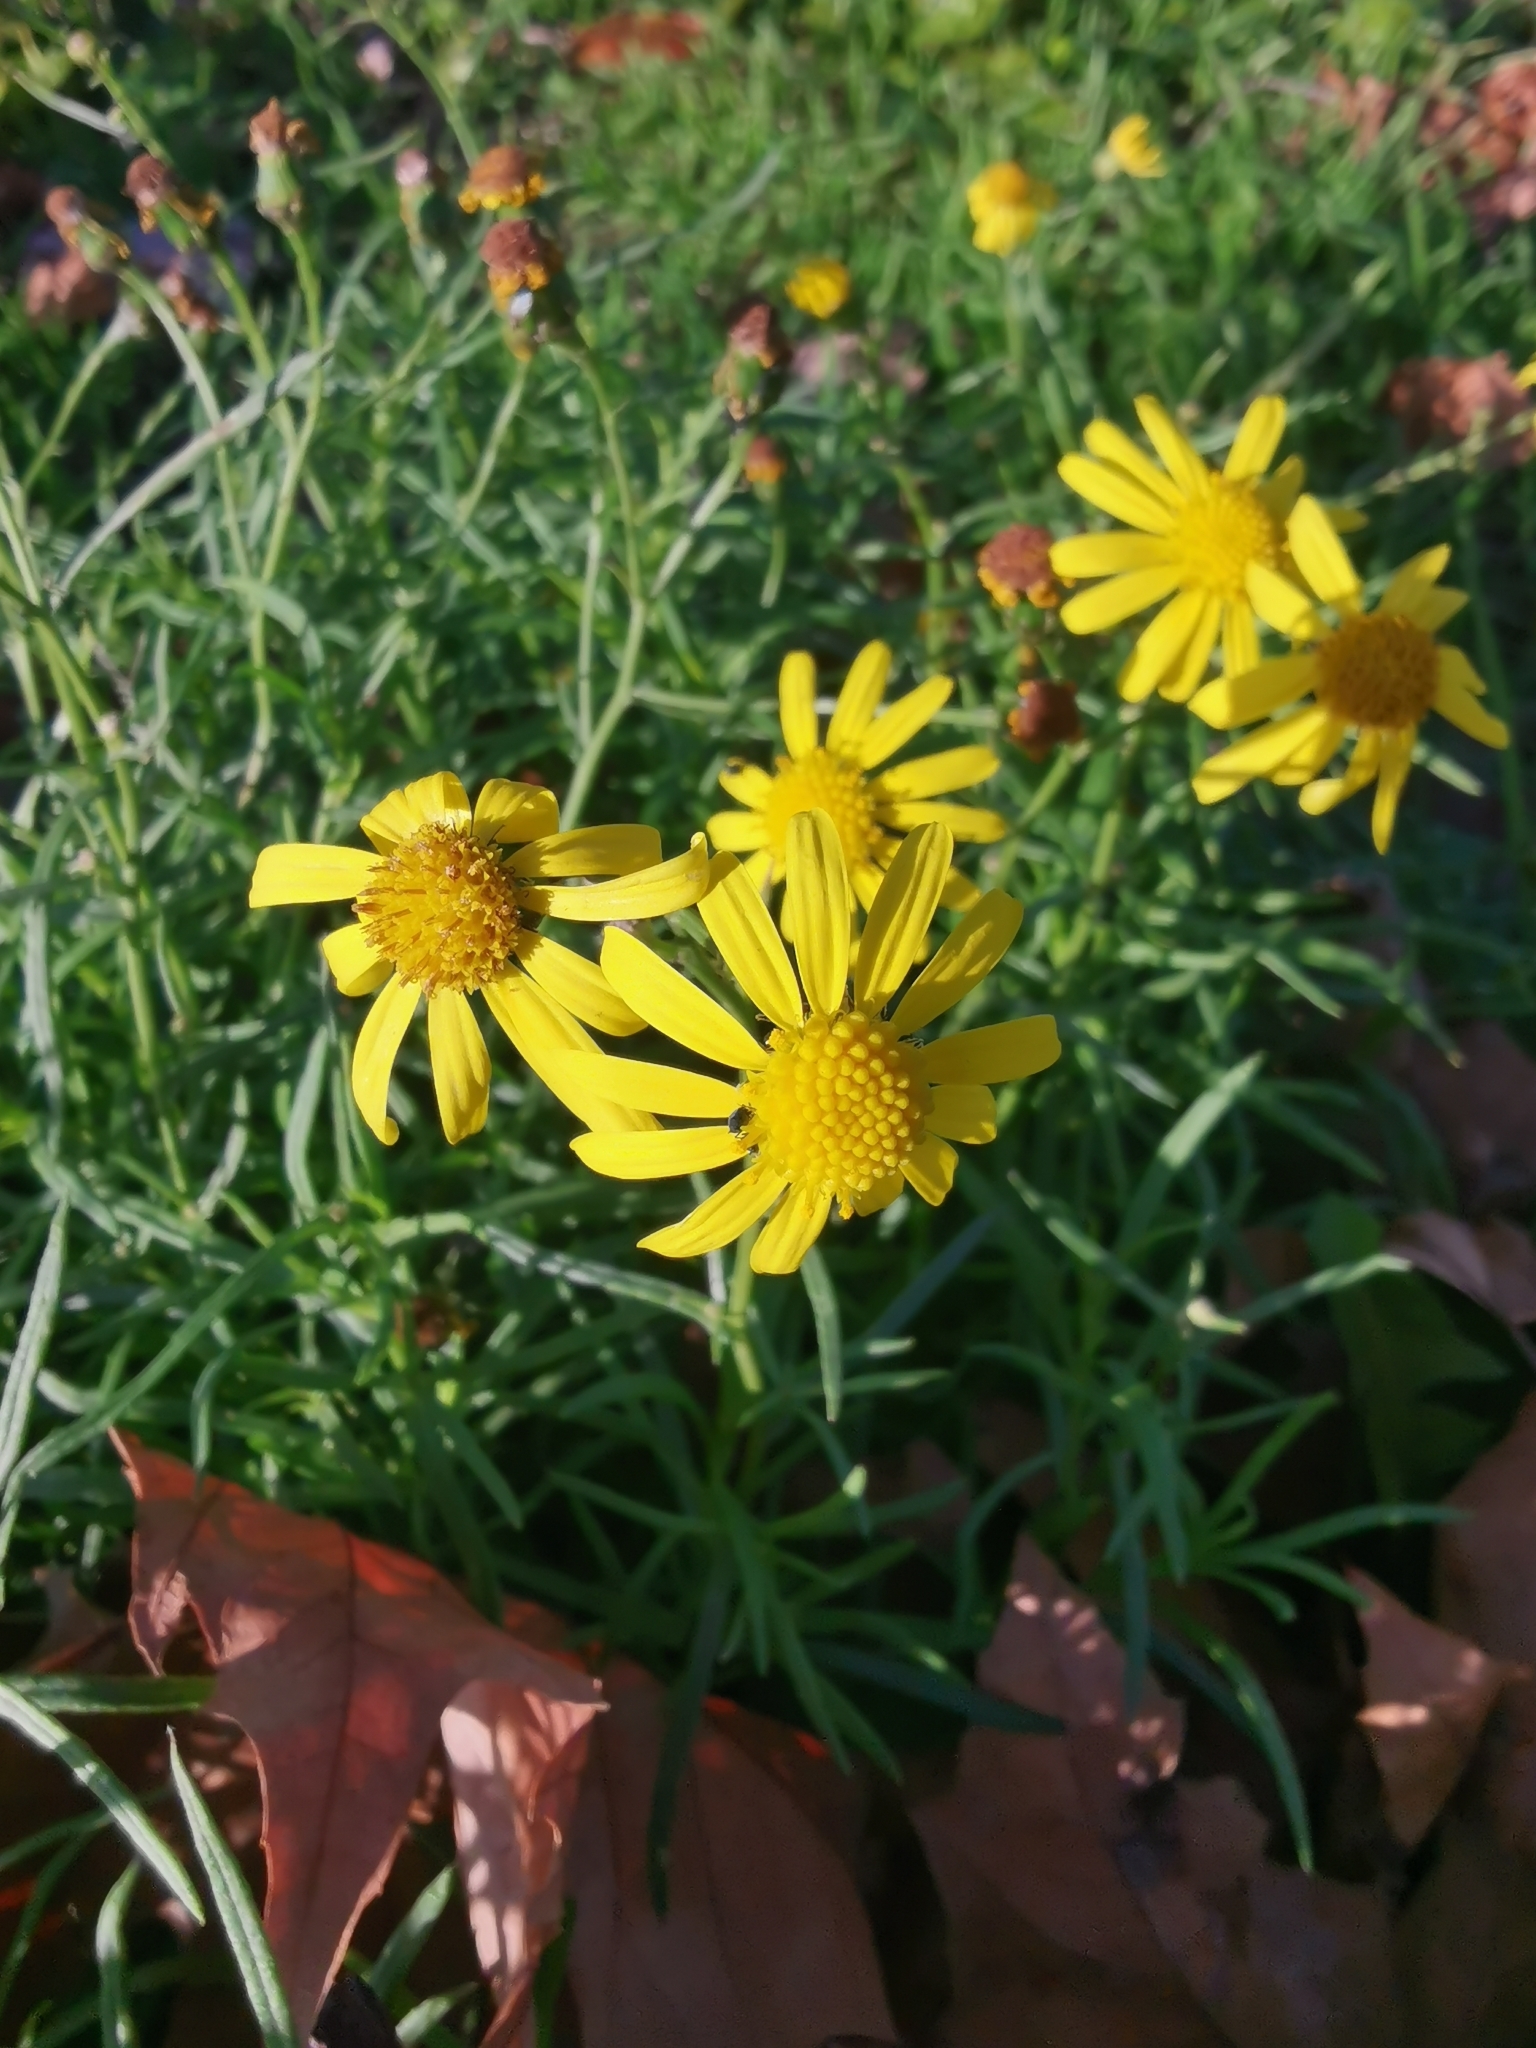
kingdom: Plantae
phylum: Tracheophyta
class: Magnoliopsida
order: Asterales
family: Asteraceae
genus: Senecio
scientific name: Senecio inaequidens
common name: Narrow-leaved ragwort
